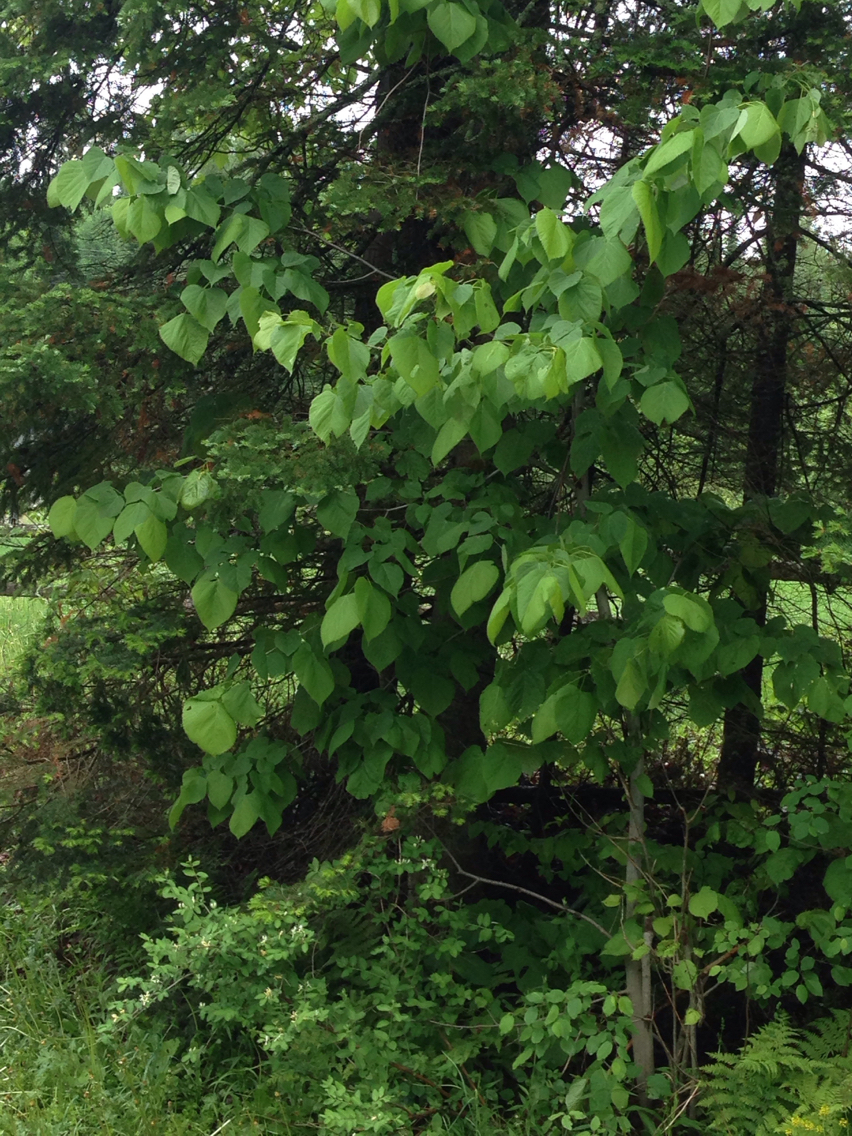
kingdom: Plantae
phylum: Tracheophyta
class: Magnoliopsida
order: Malvales
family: Malvaceae
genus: Tilia
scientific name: Tilia americana
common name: Basswood
